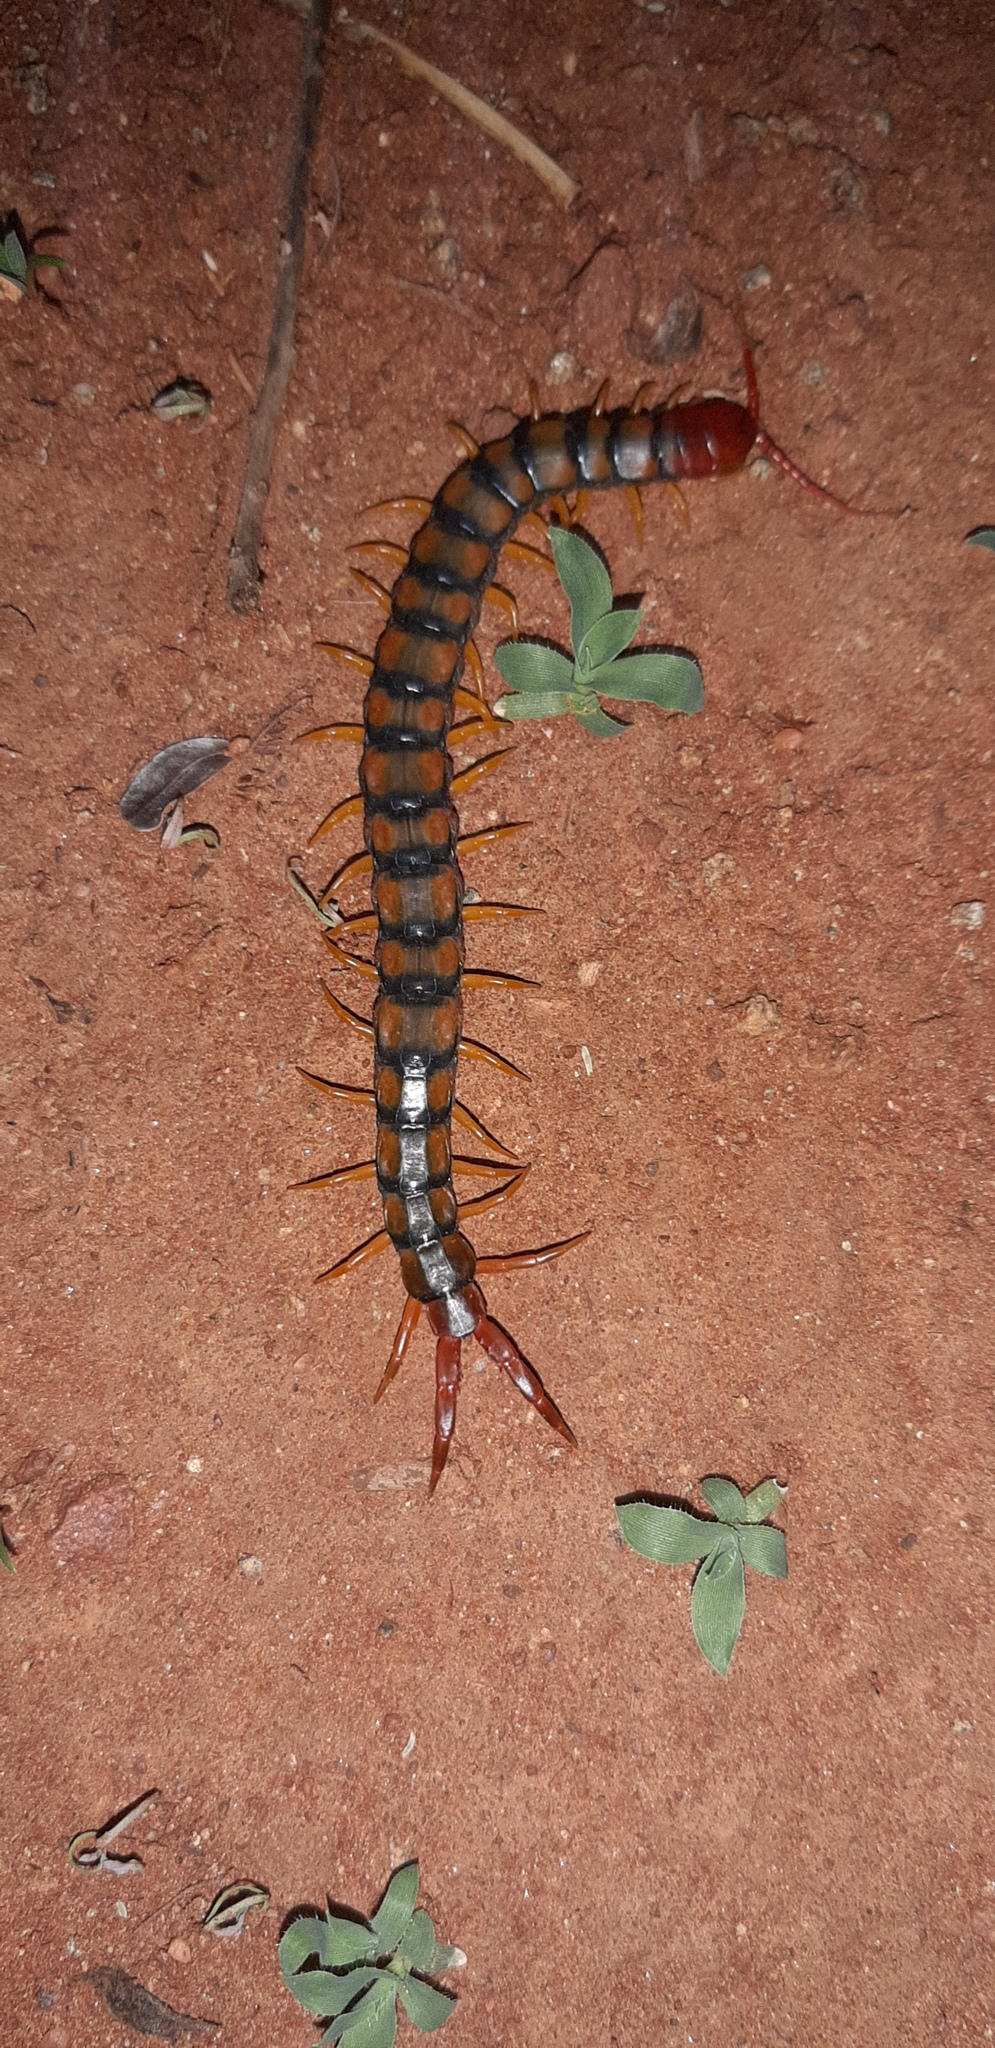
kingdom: Animalia
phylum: Arthropoda
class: Chilopoda
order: Scolopendromorpha
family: Scolopendridae
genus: Scolopendra
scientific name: Scolopendra morsitans
